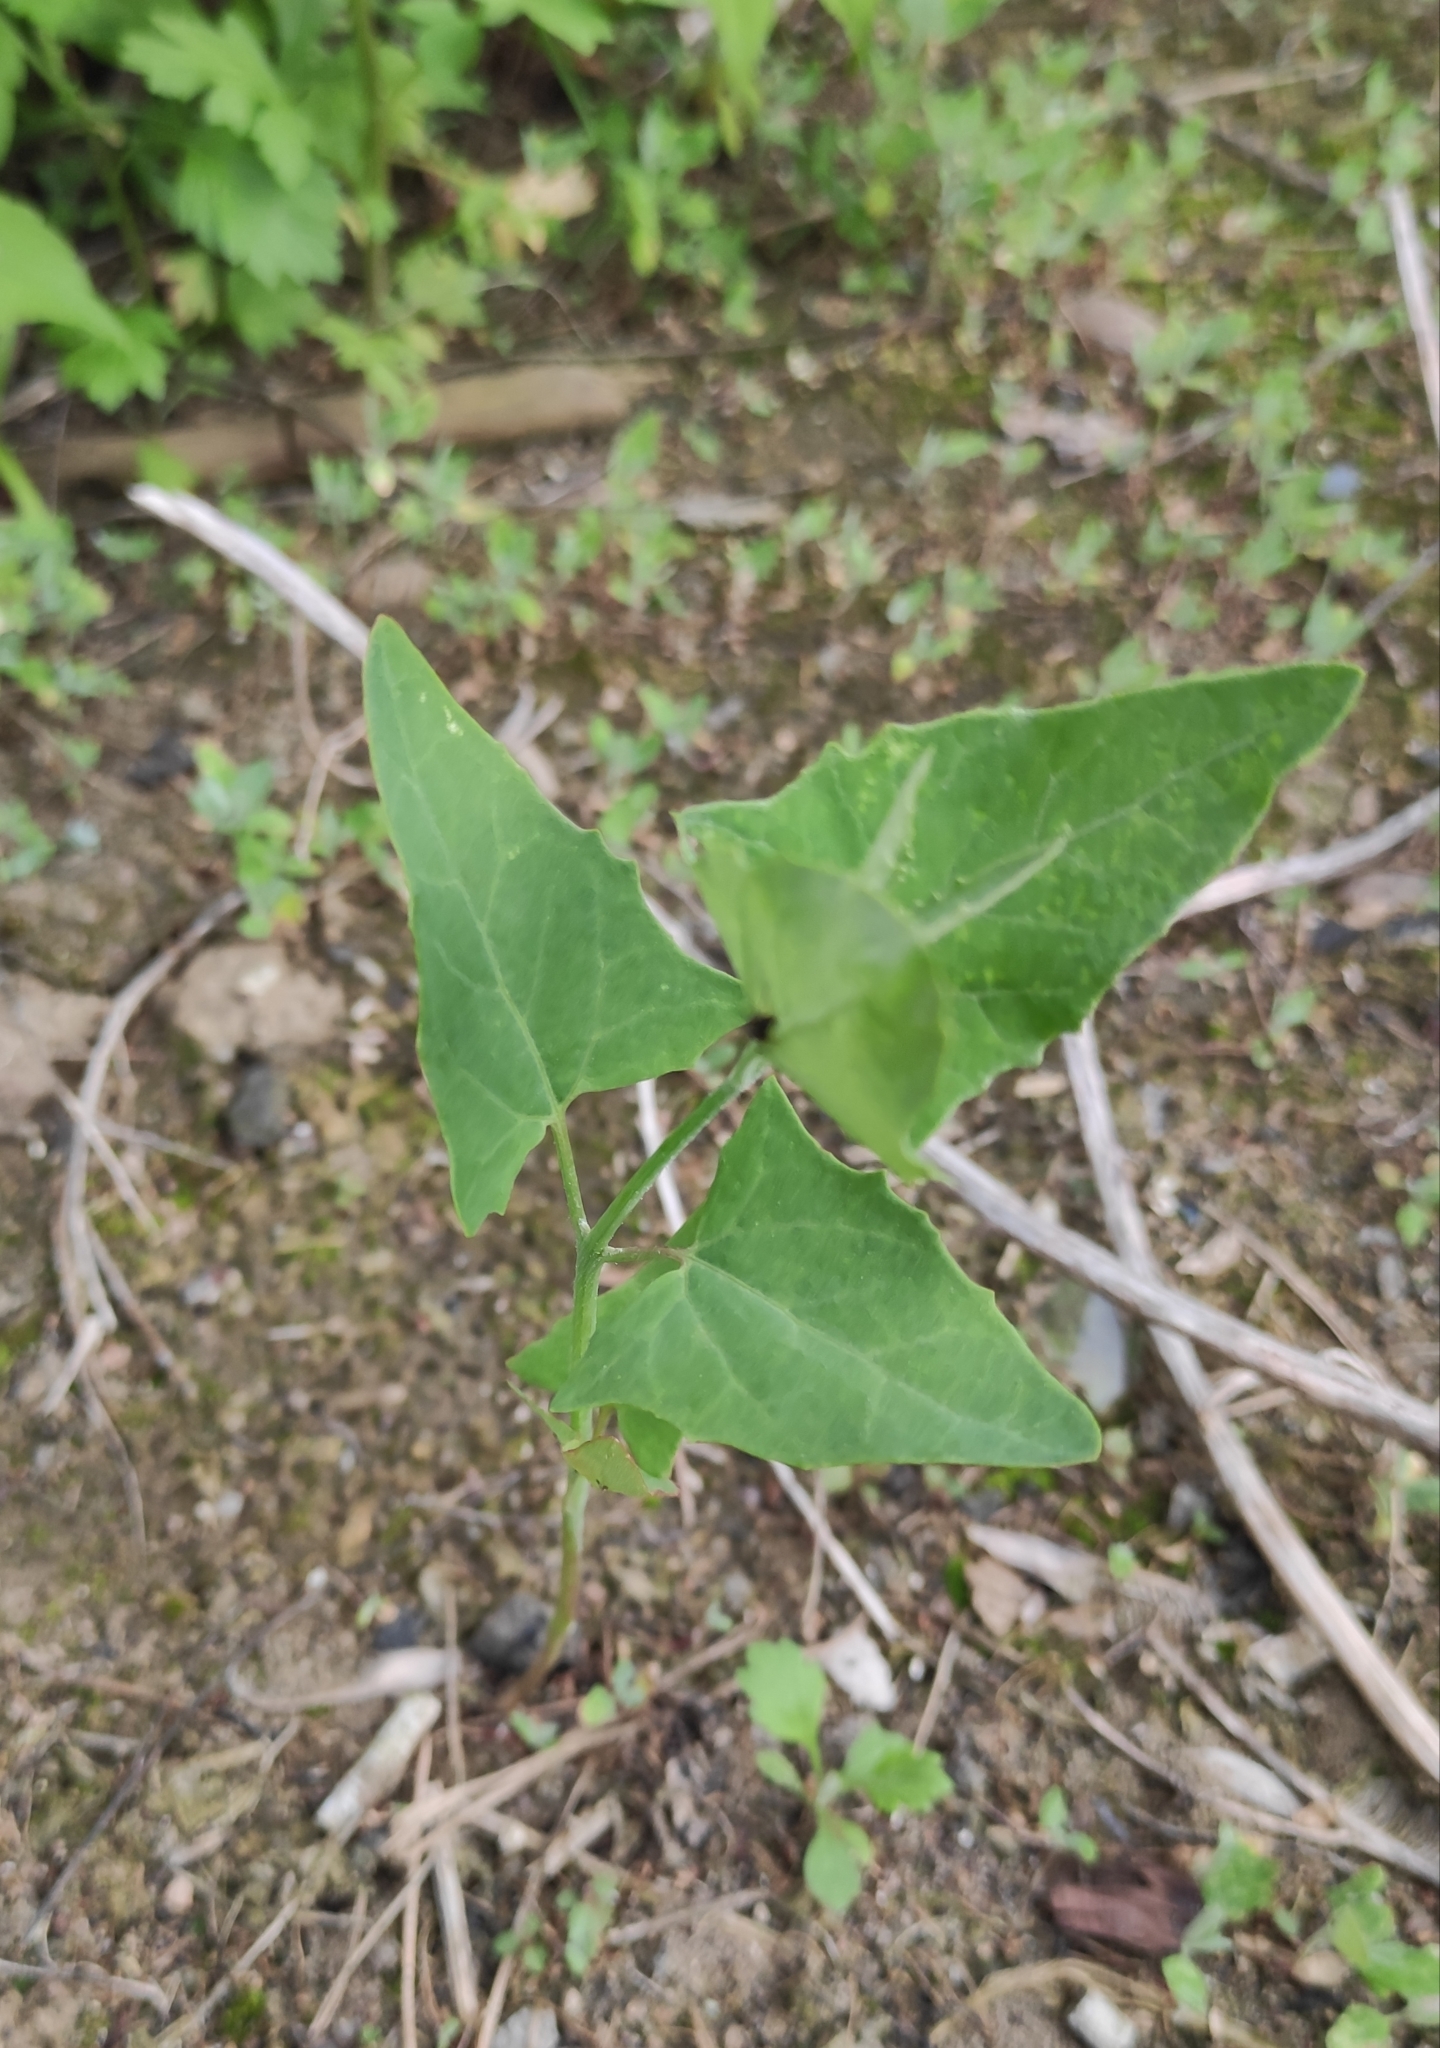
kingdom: Plantae
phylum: Tracheophyta
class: Magnoliopsida
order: Caryophyllales
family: Amaranthaceae
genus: Atriplex
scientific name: Atriplex sagittata
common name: Purple orache
